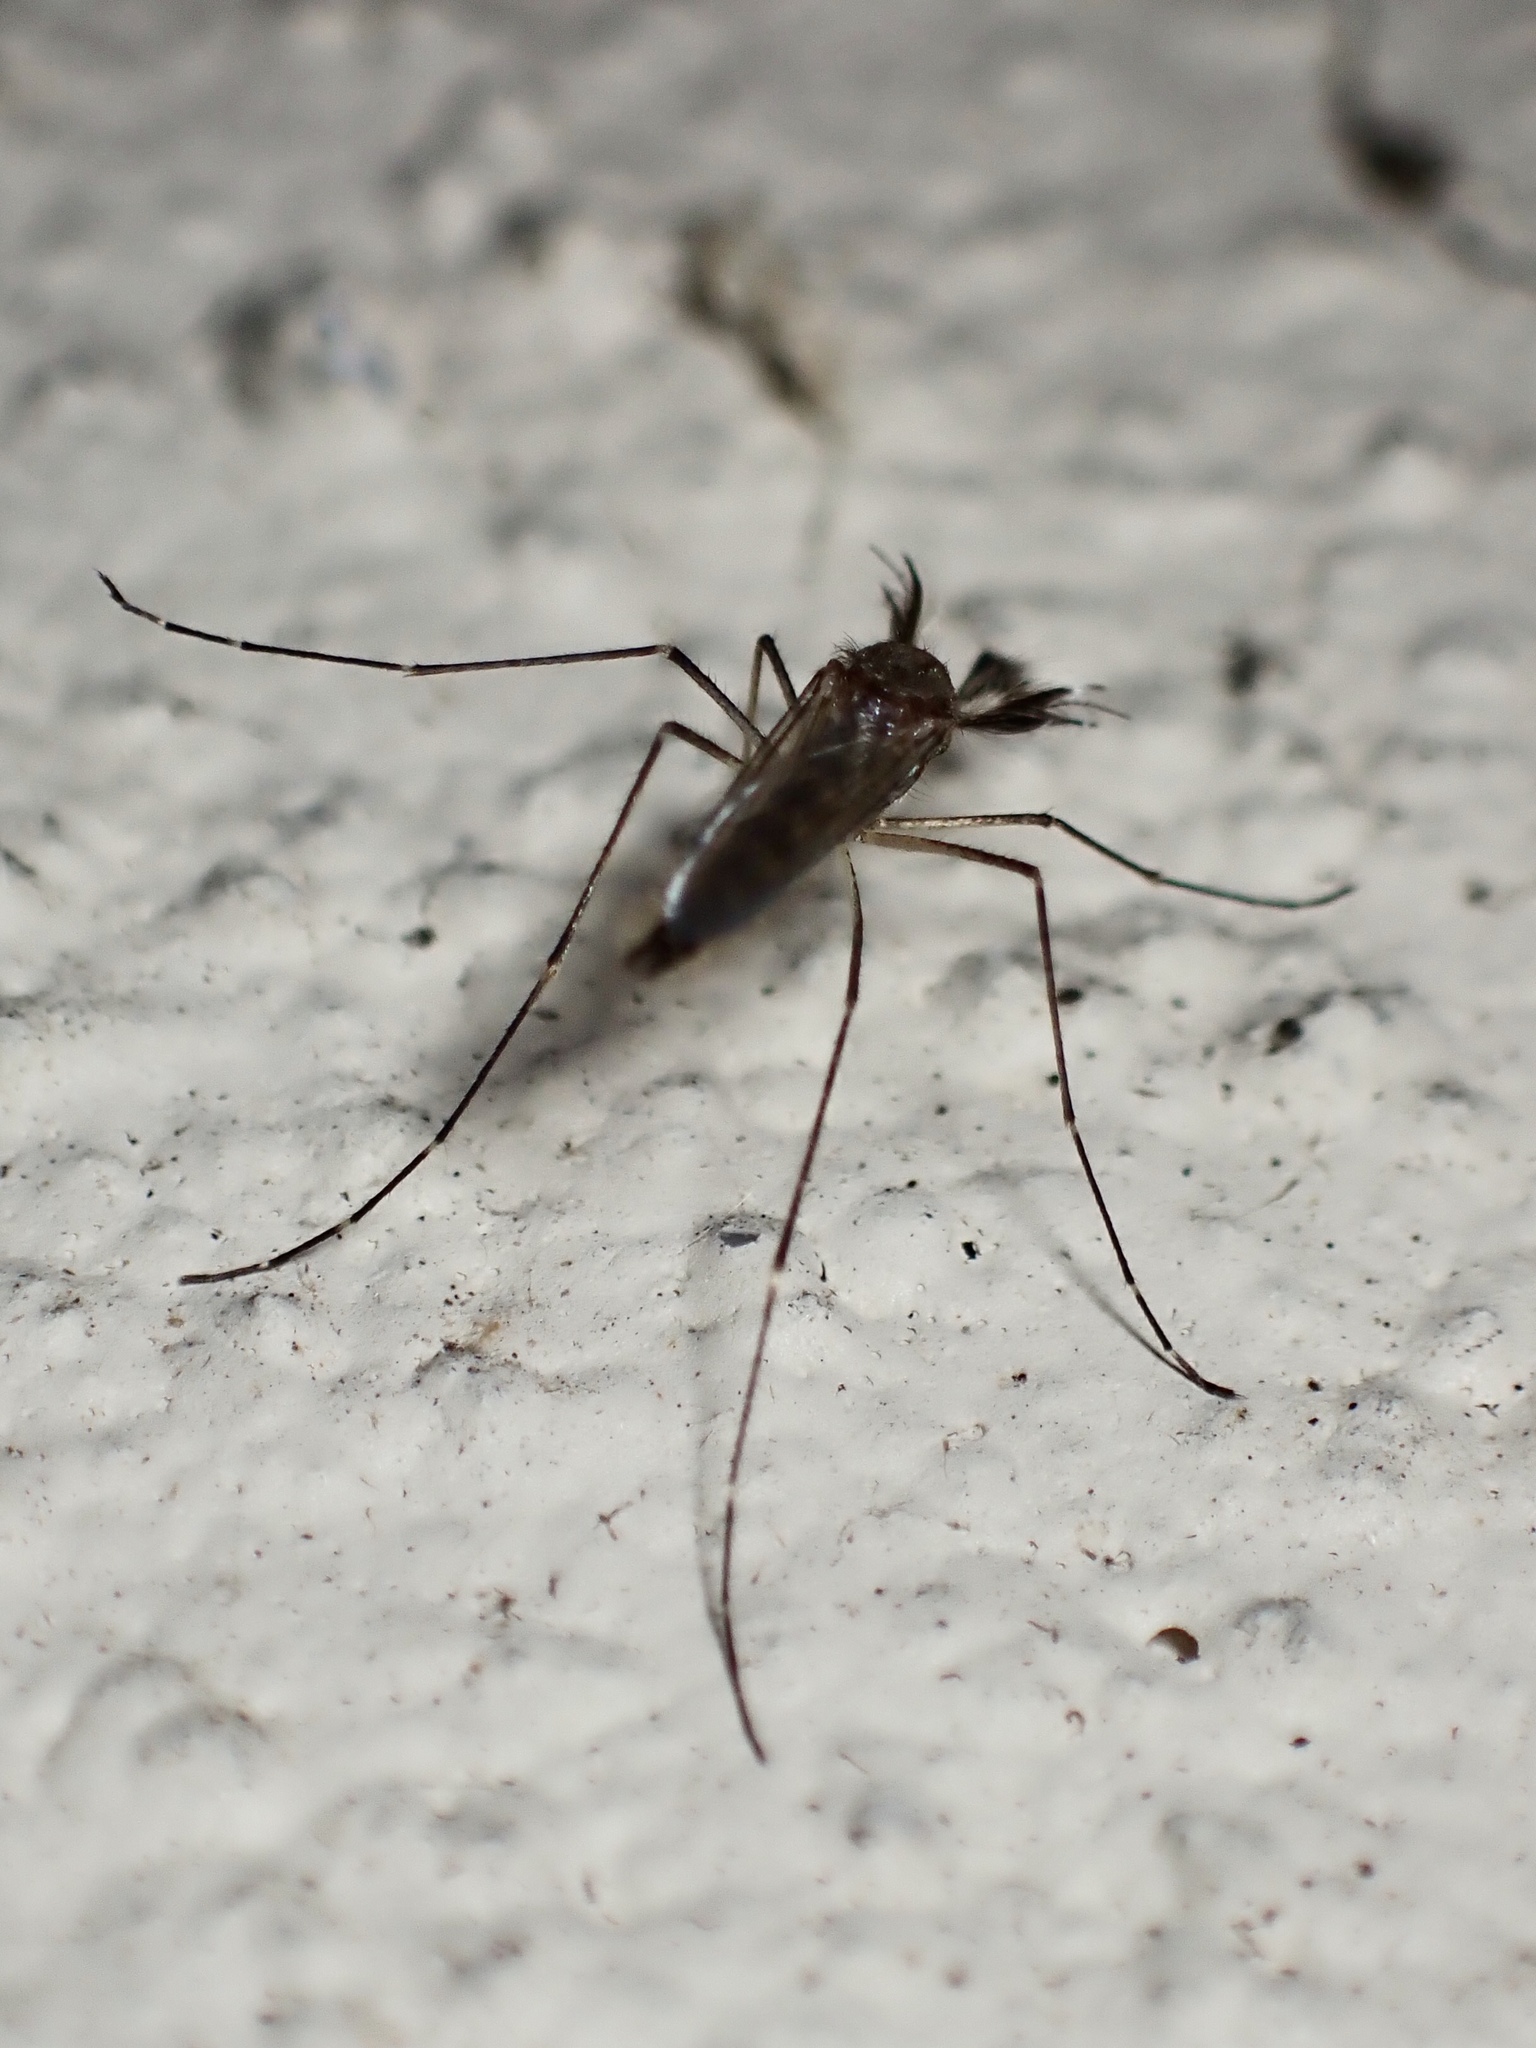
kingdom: Animalia
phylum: Arthropoda
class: Insecta
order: Diptera
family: Culicidae
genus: Aedes
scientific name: Aedes vexans
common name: Inland floodwater mosquito
